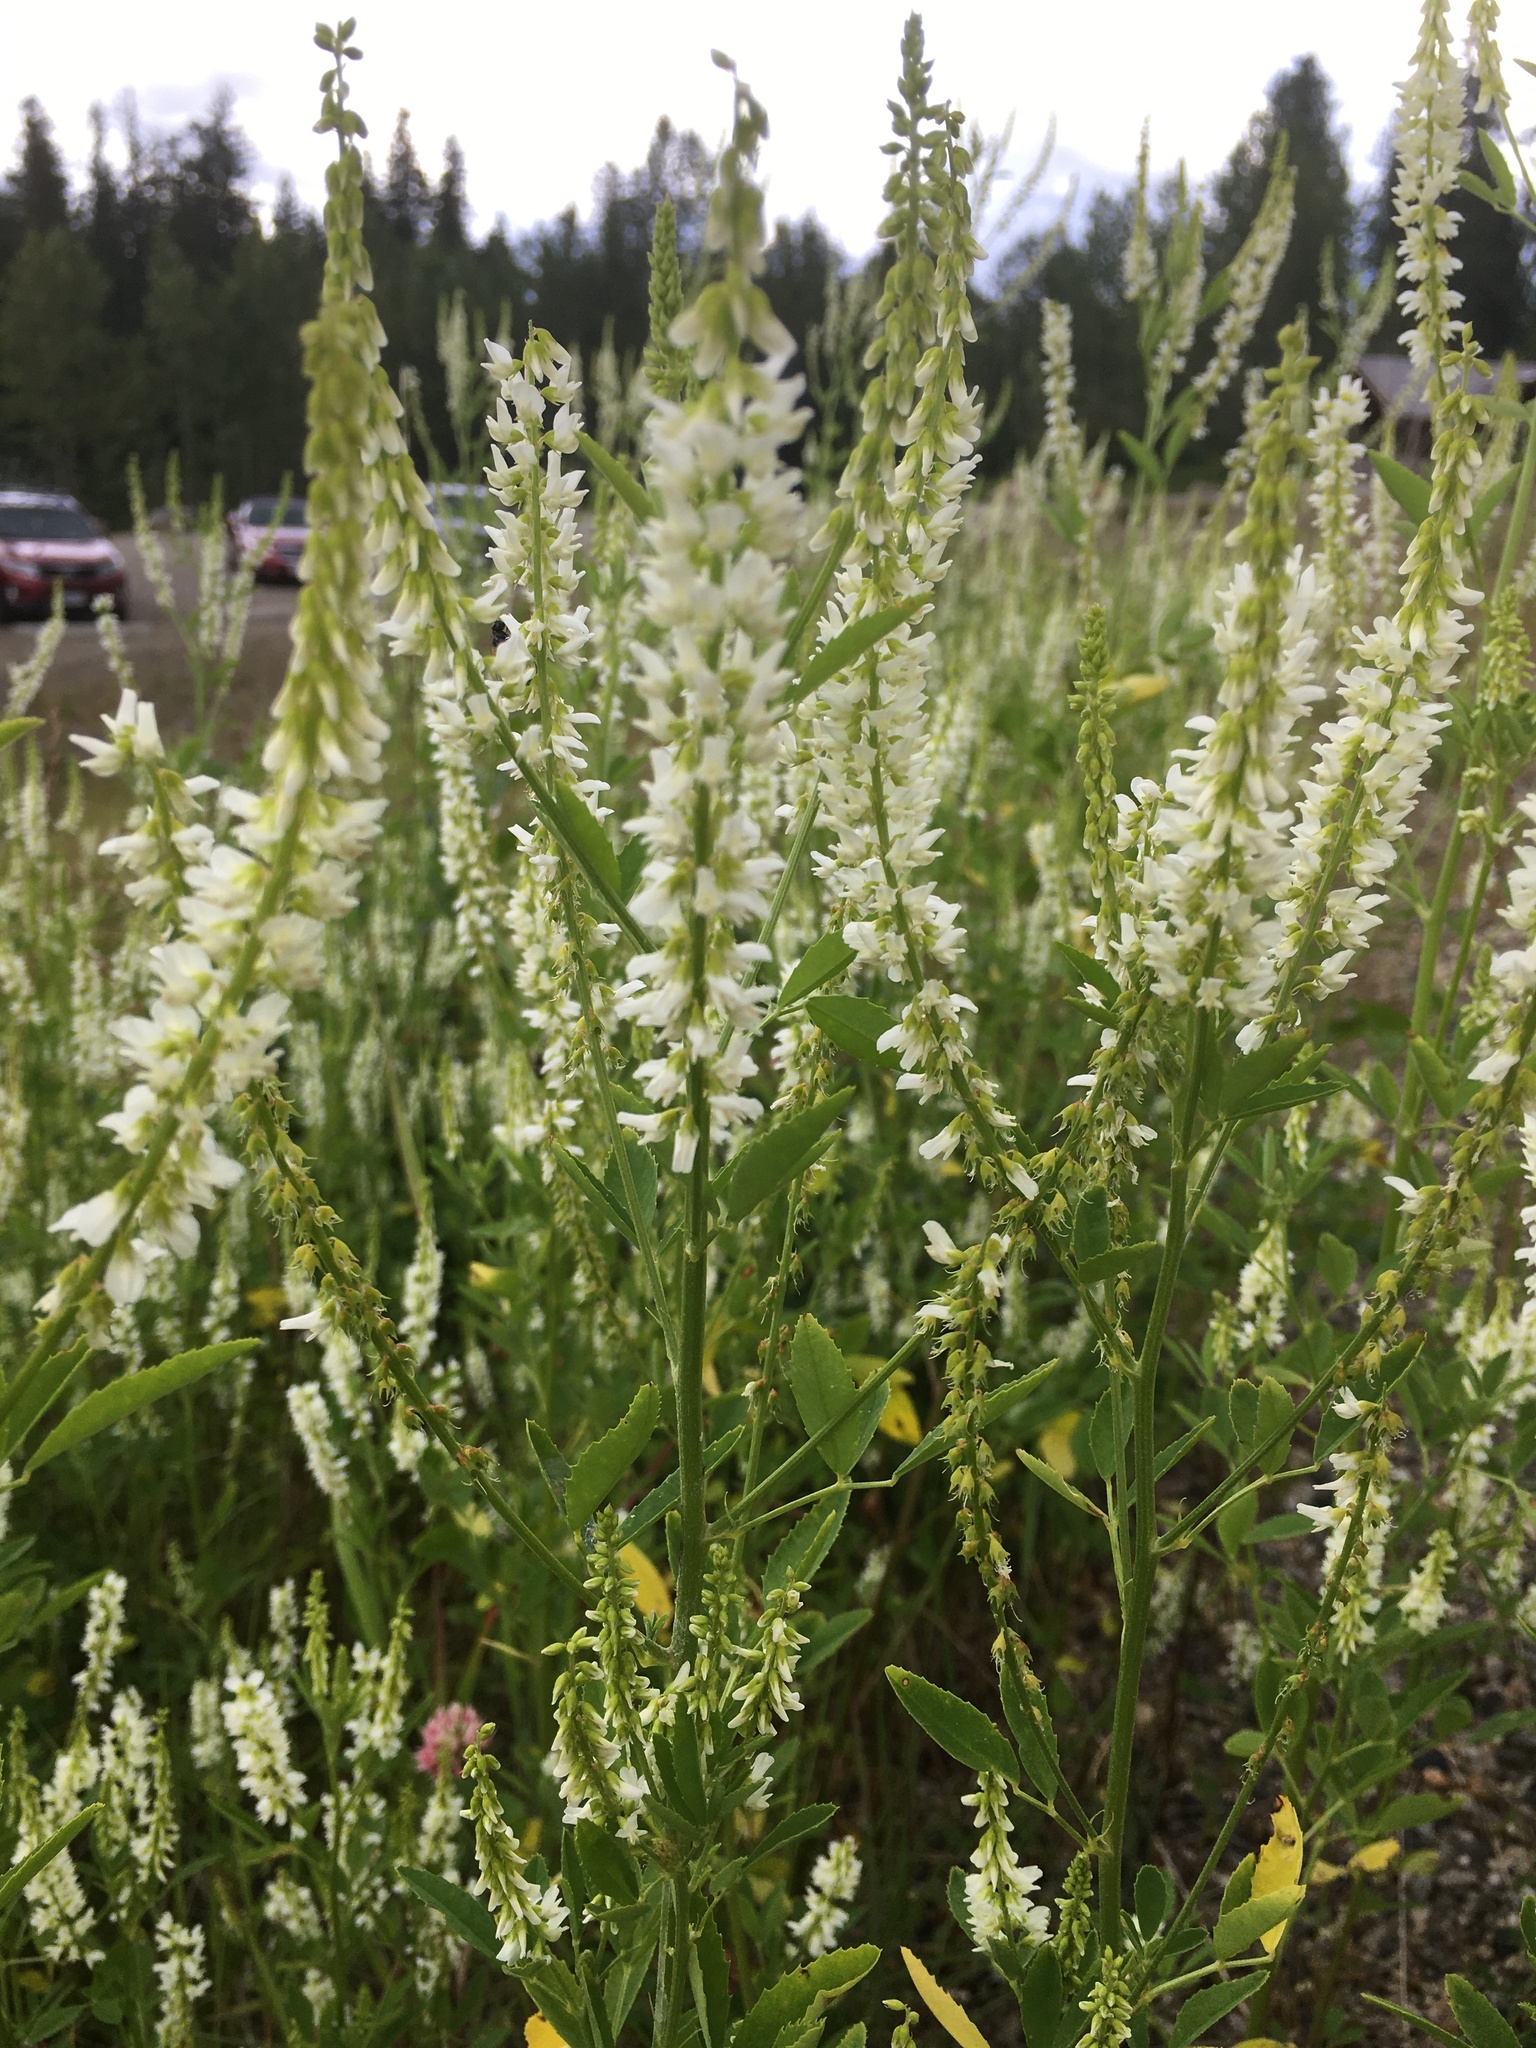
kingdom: Plantae
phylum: Tracheophyta
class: Magnoliopsida
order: Fabales
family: Fabaceae
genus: Melilotus
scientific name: Melilotus albus
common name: White melilot
